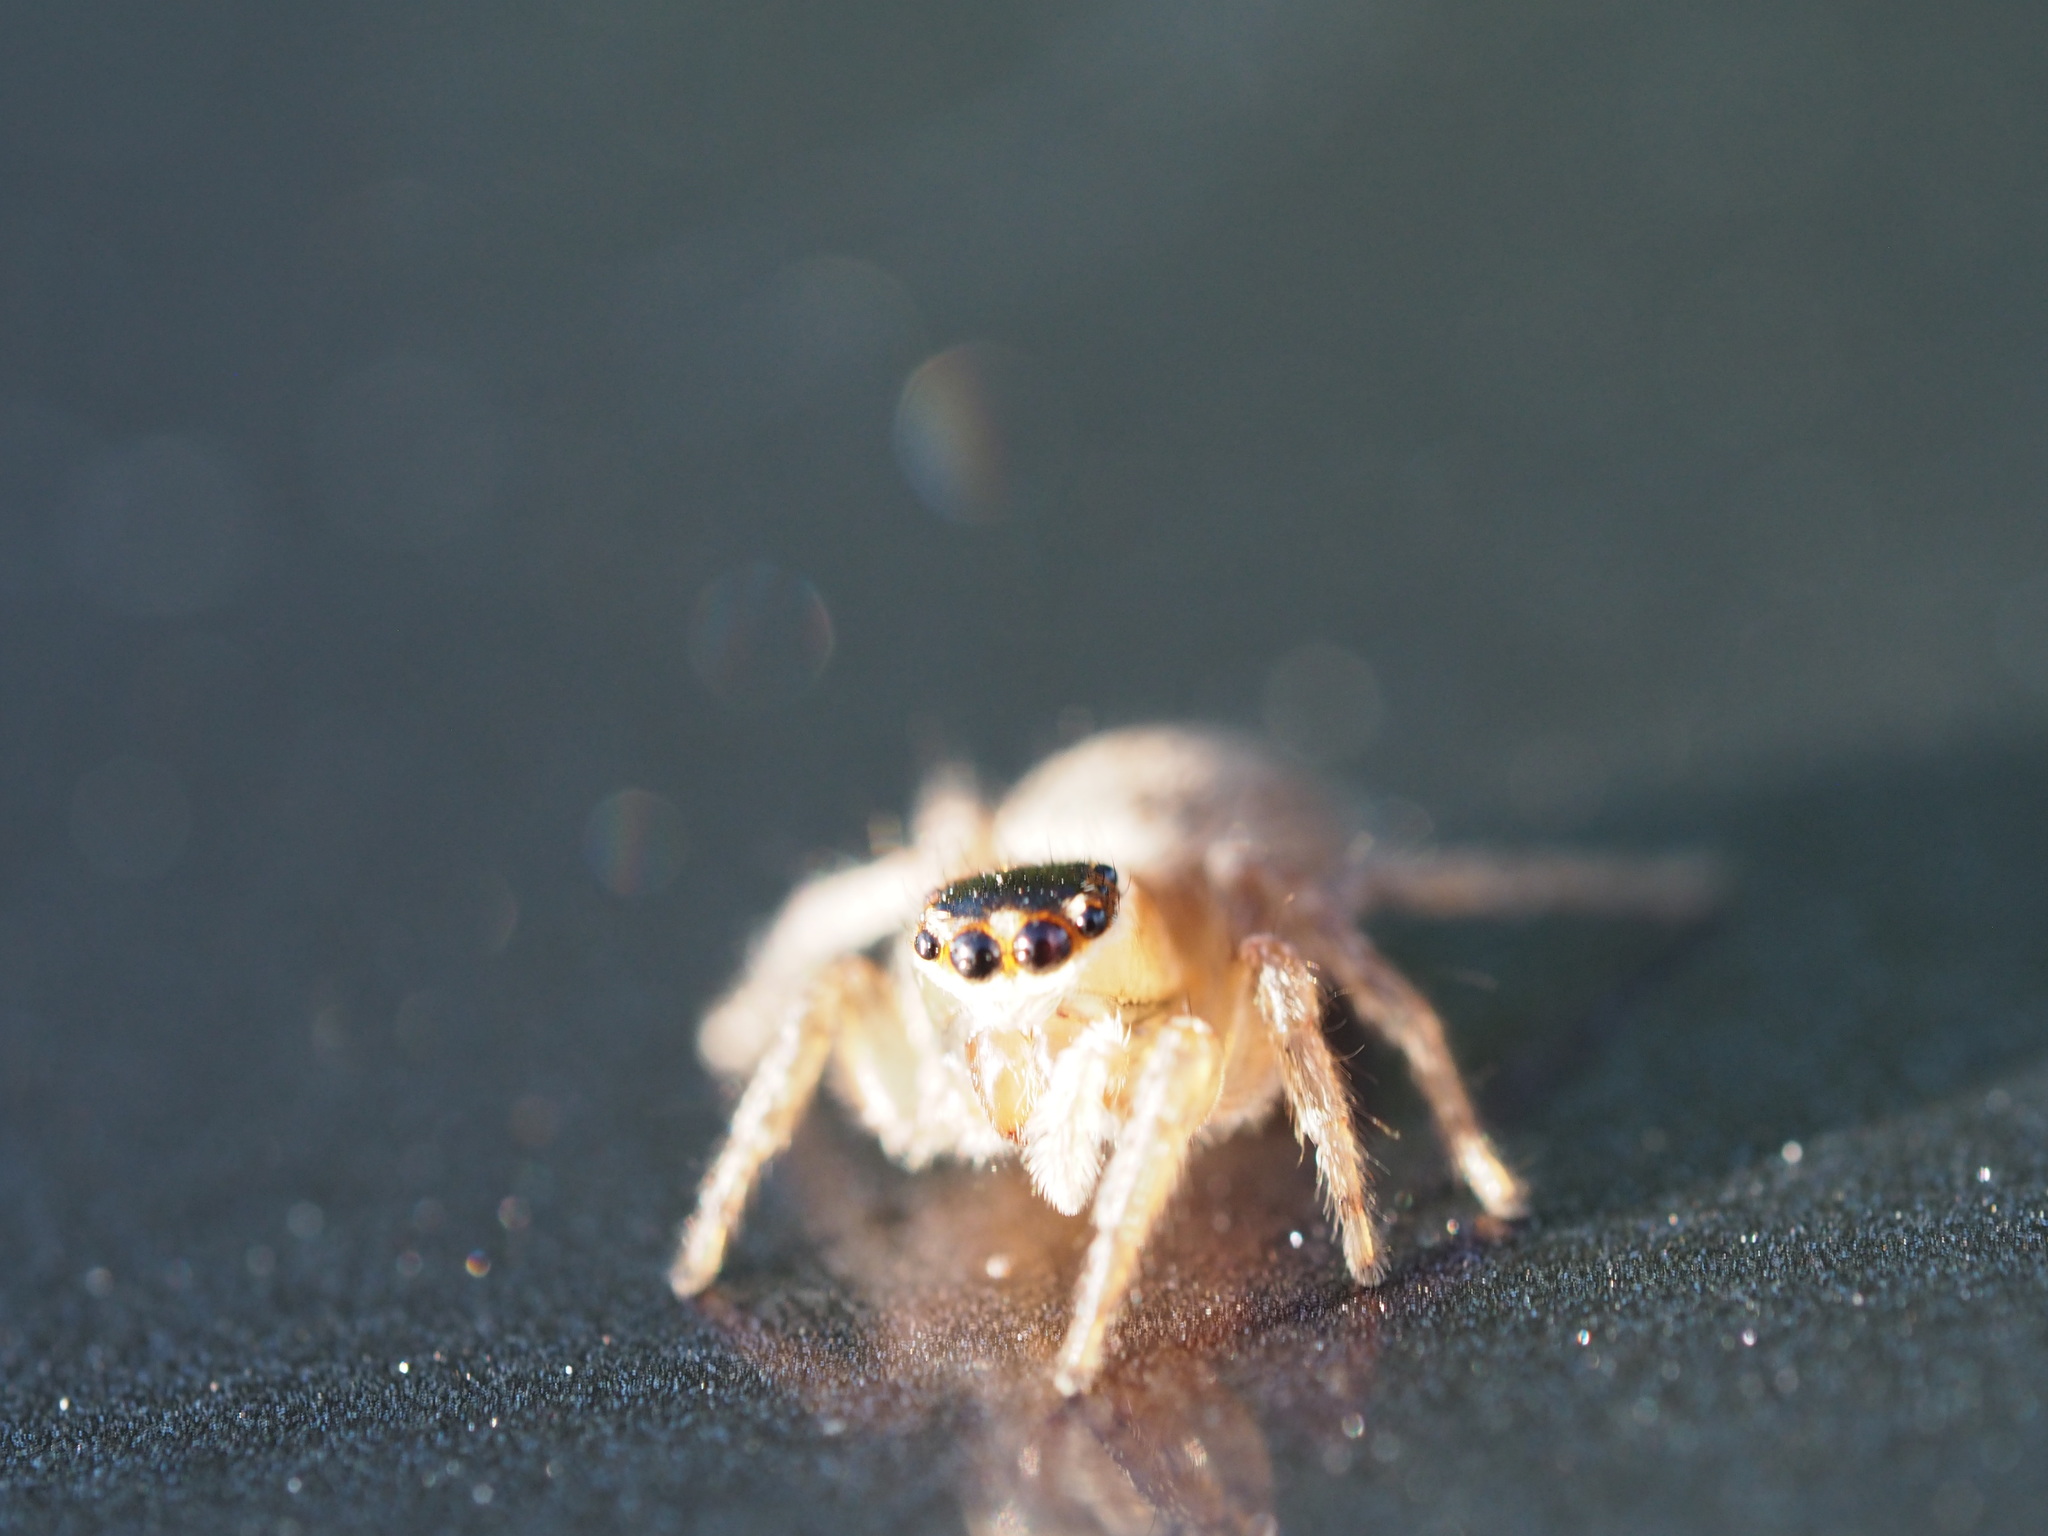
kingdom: Animalia
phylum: Arthropoda
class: Arachnida
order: Araneae
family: Salticidae
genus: Maratus
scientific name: Maratus griseus
